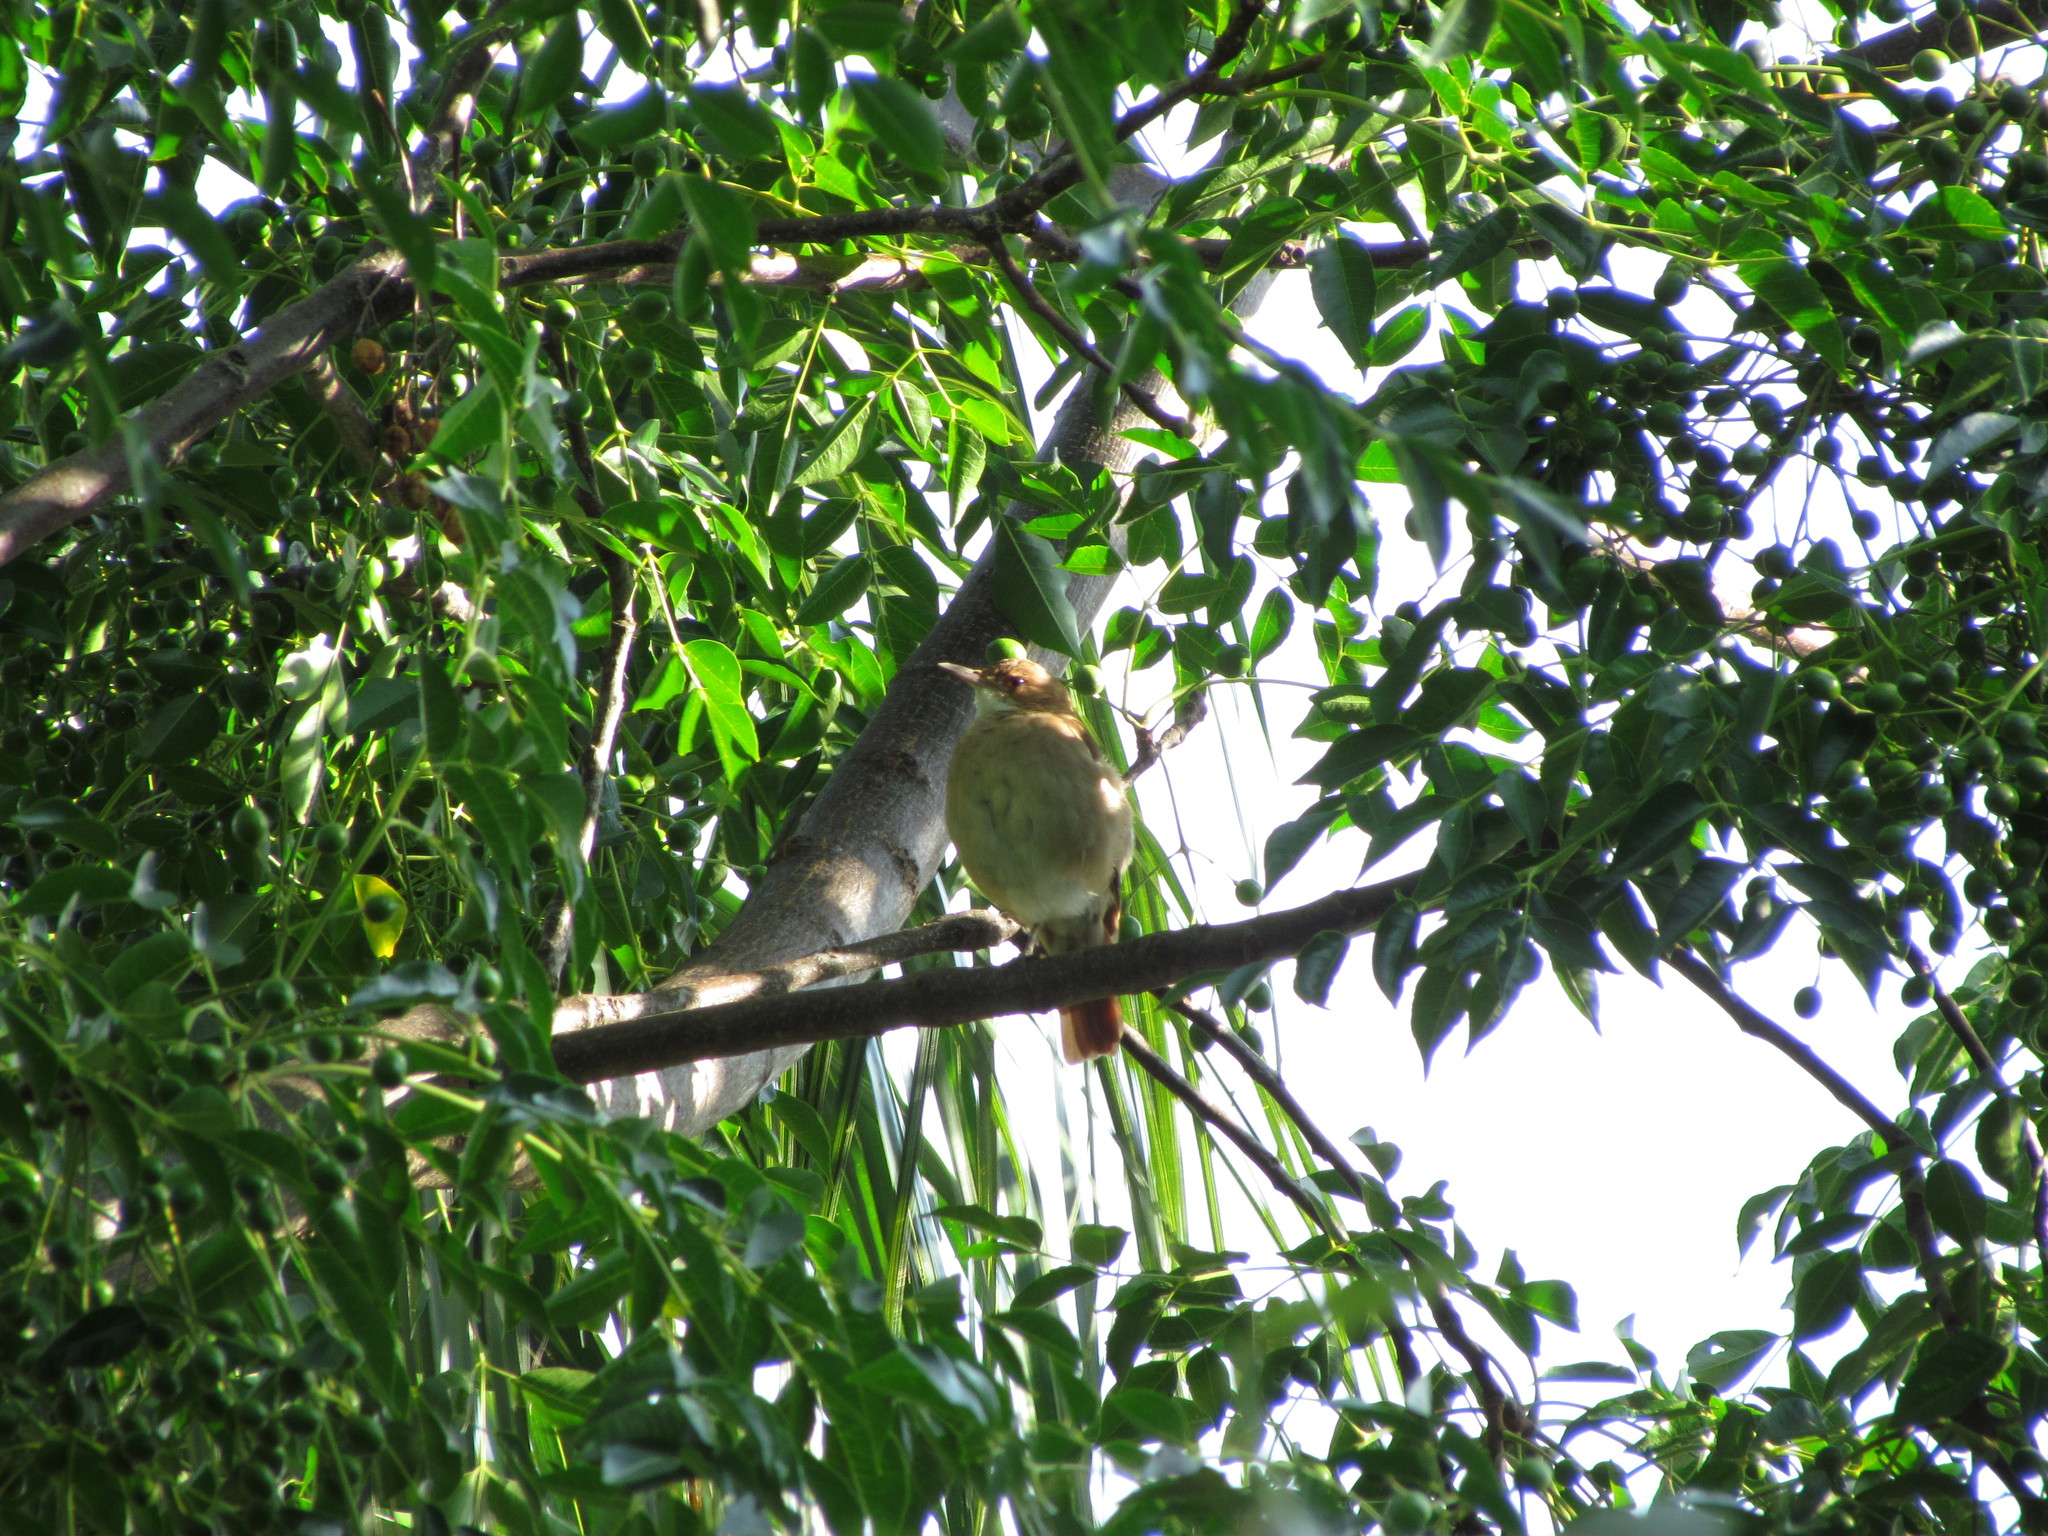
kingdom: Animalia
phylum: Chordata
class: Aves
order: Passeriformes
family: Furnariidae
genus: Furnarius
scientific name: Furnarius rufus
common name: Rufous hornero
